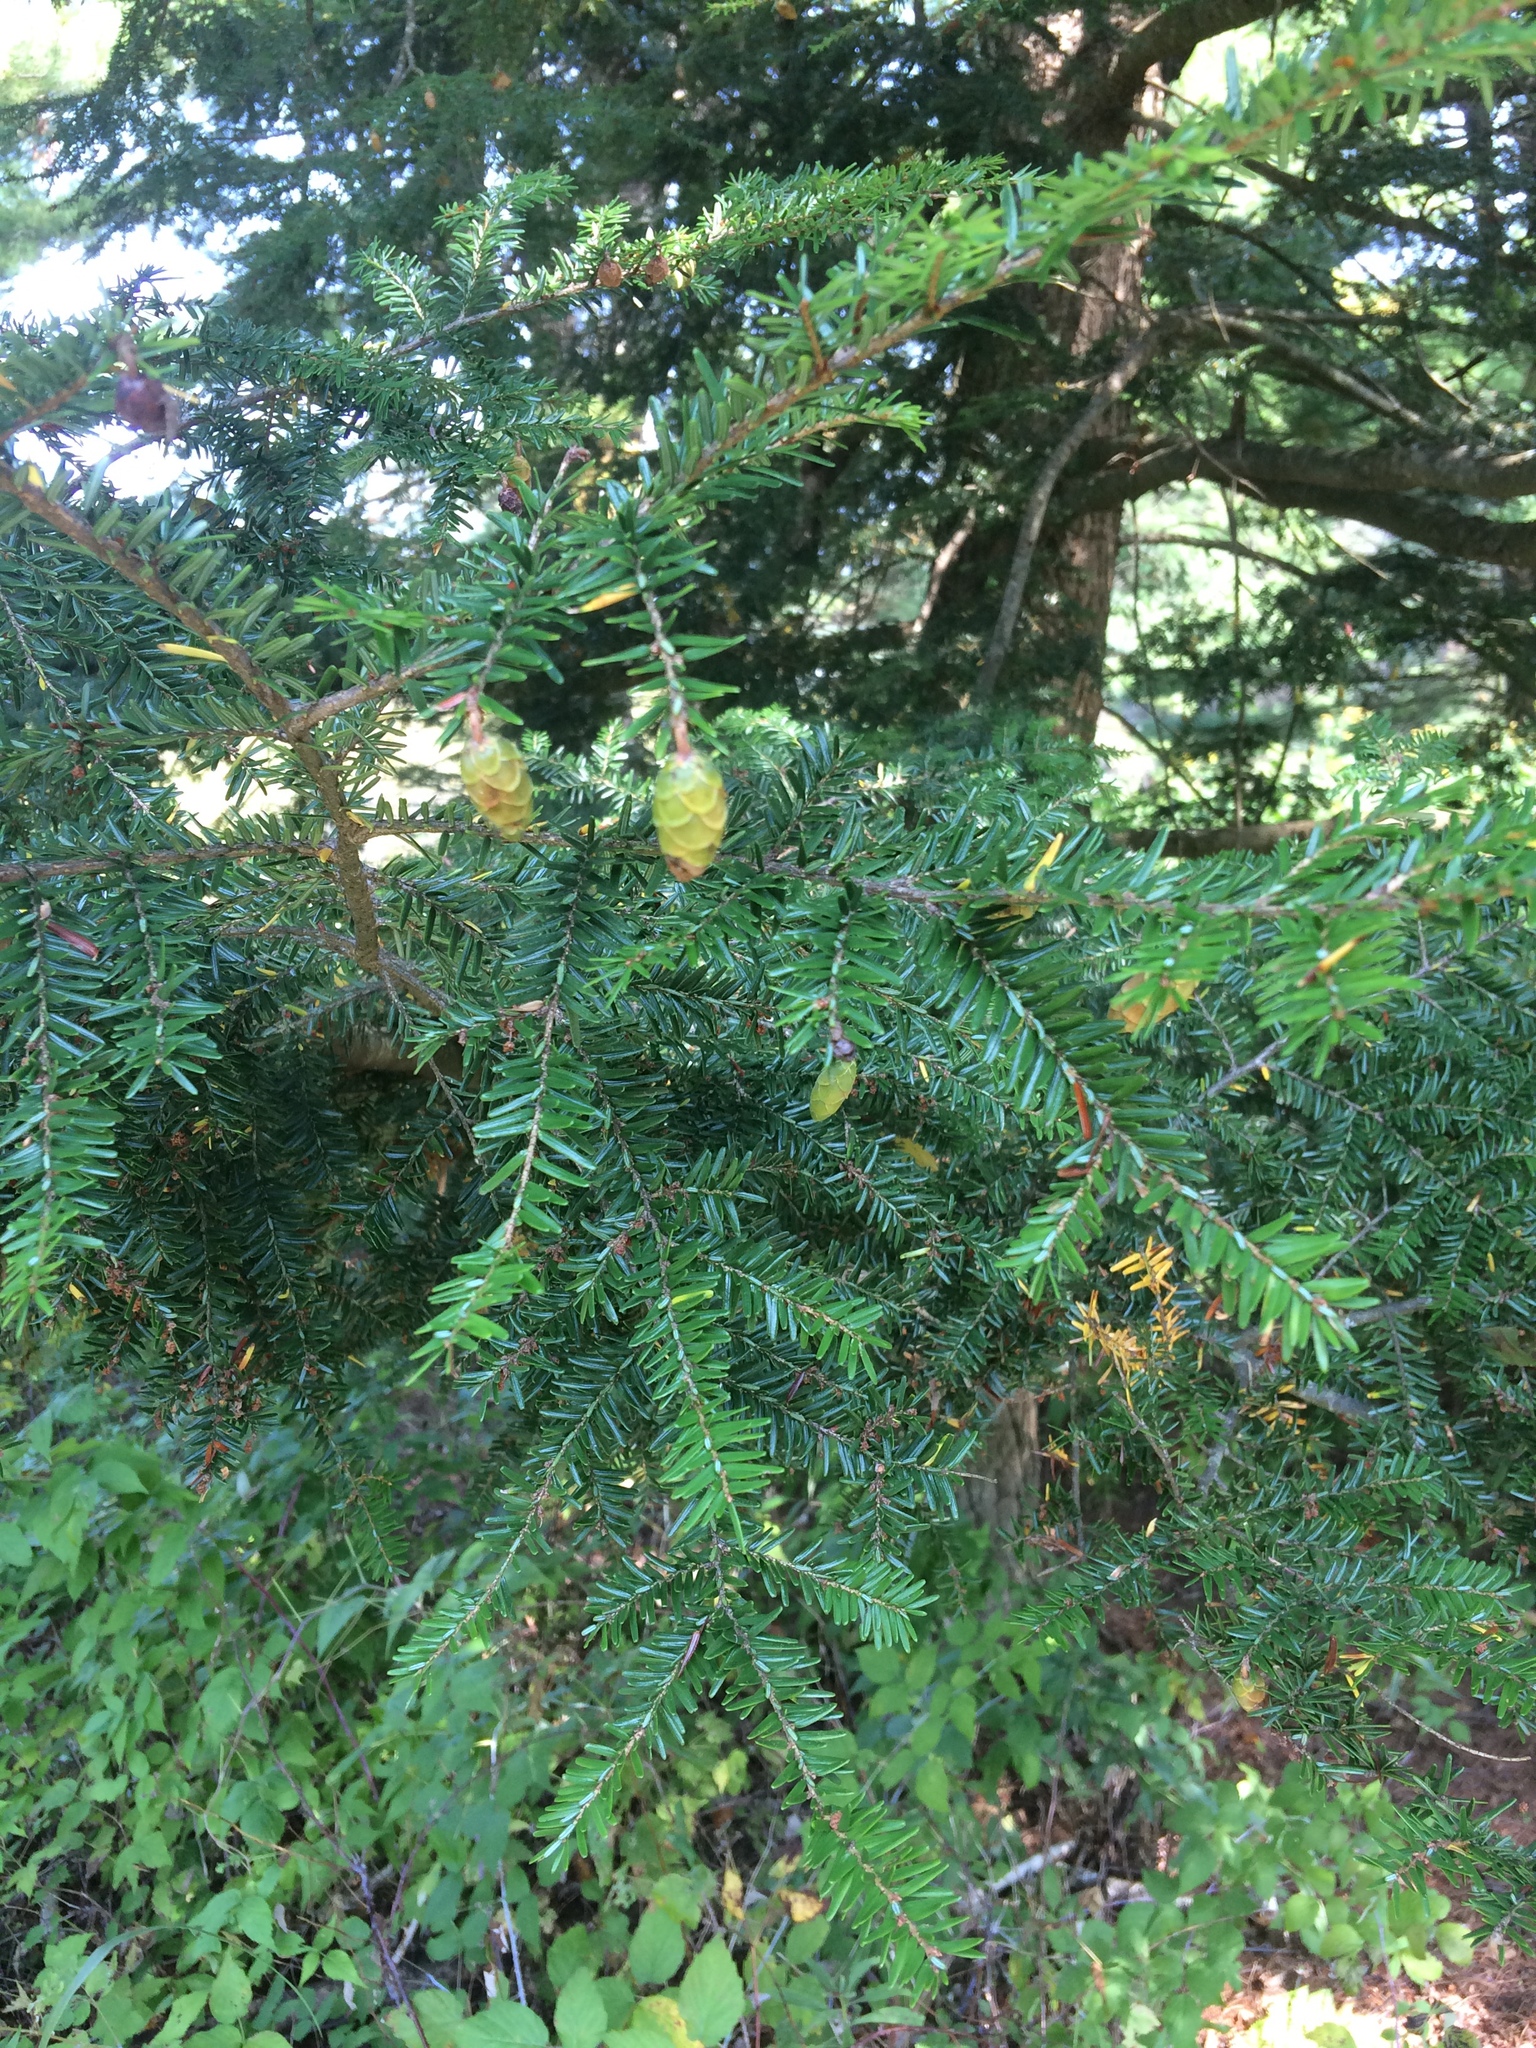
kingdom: Plantae
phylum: Tracheophyta
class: Pinopsida
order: Pinales
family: Pinaceae
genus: Tsuga
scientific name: Tsuga canadensis
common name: Eastern hemlock
